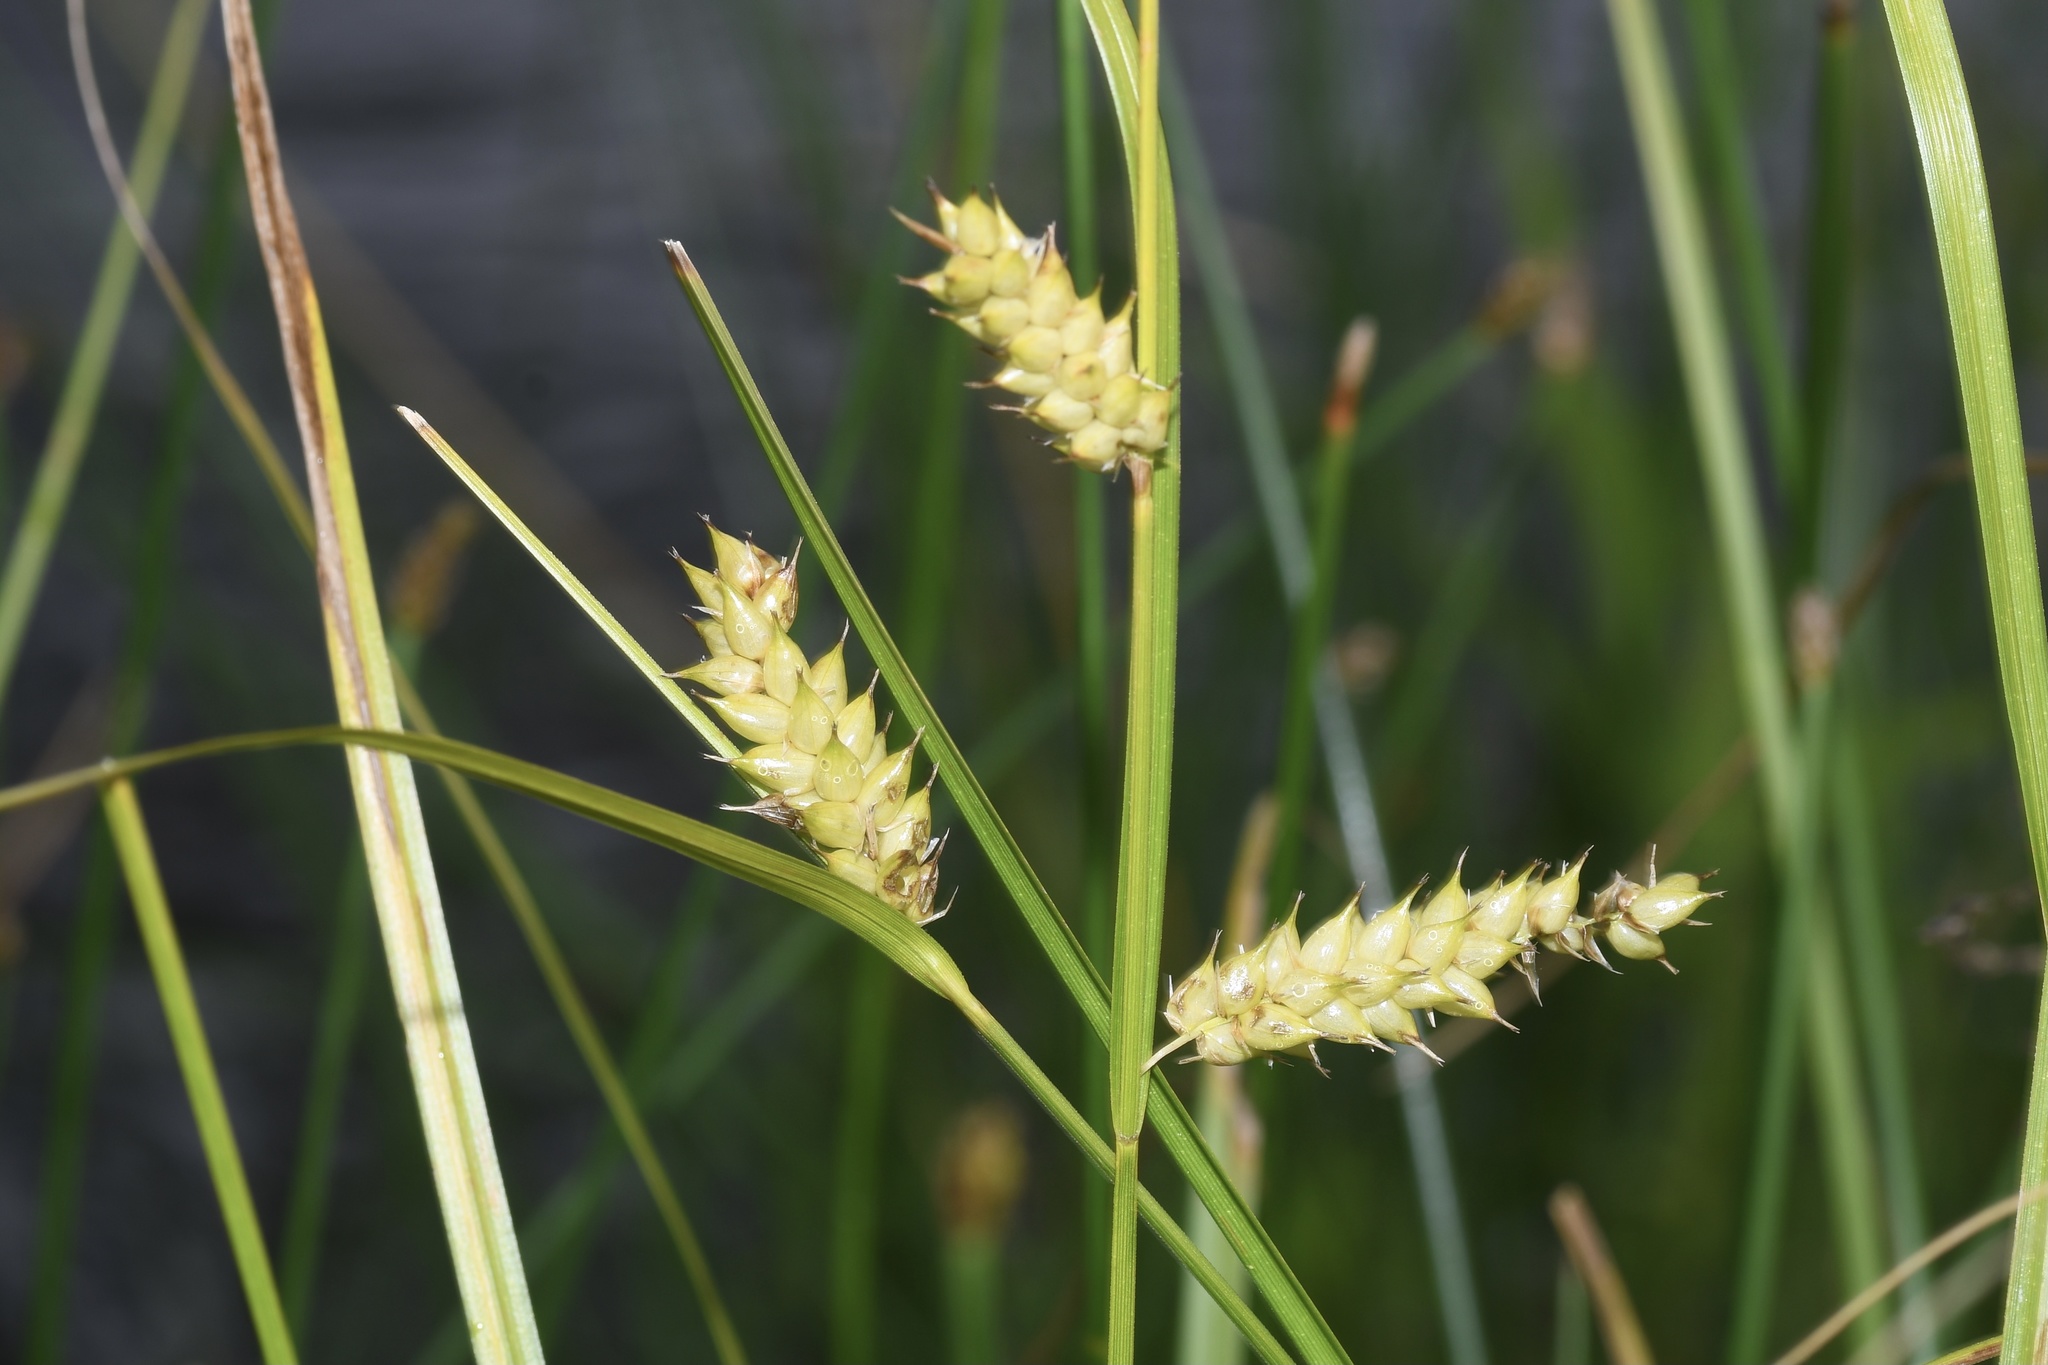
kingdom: Plantae
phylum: Tracheophyta
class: Liliopsida
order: Poales
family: Cyperaceae
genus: Carex
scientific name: Carex vesicaria
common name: Bladder-sedge
